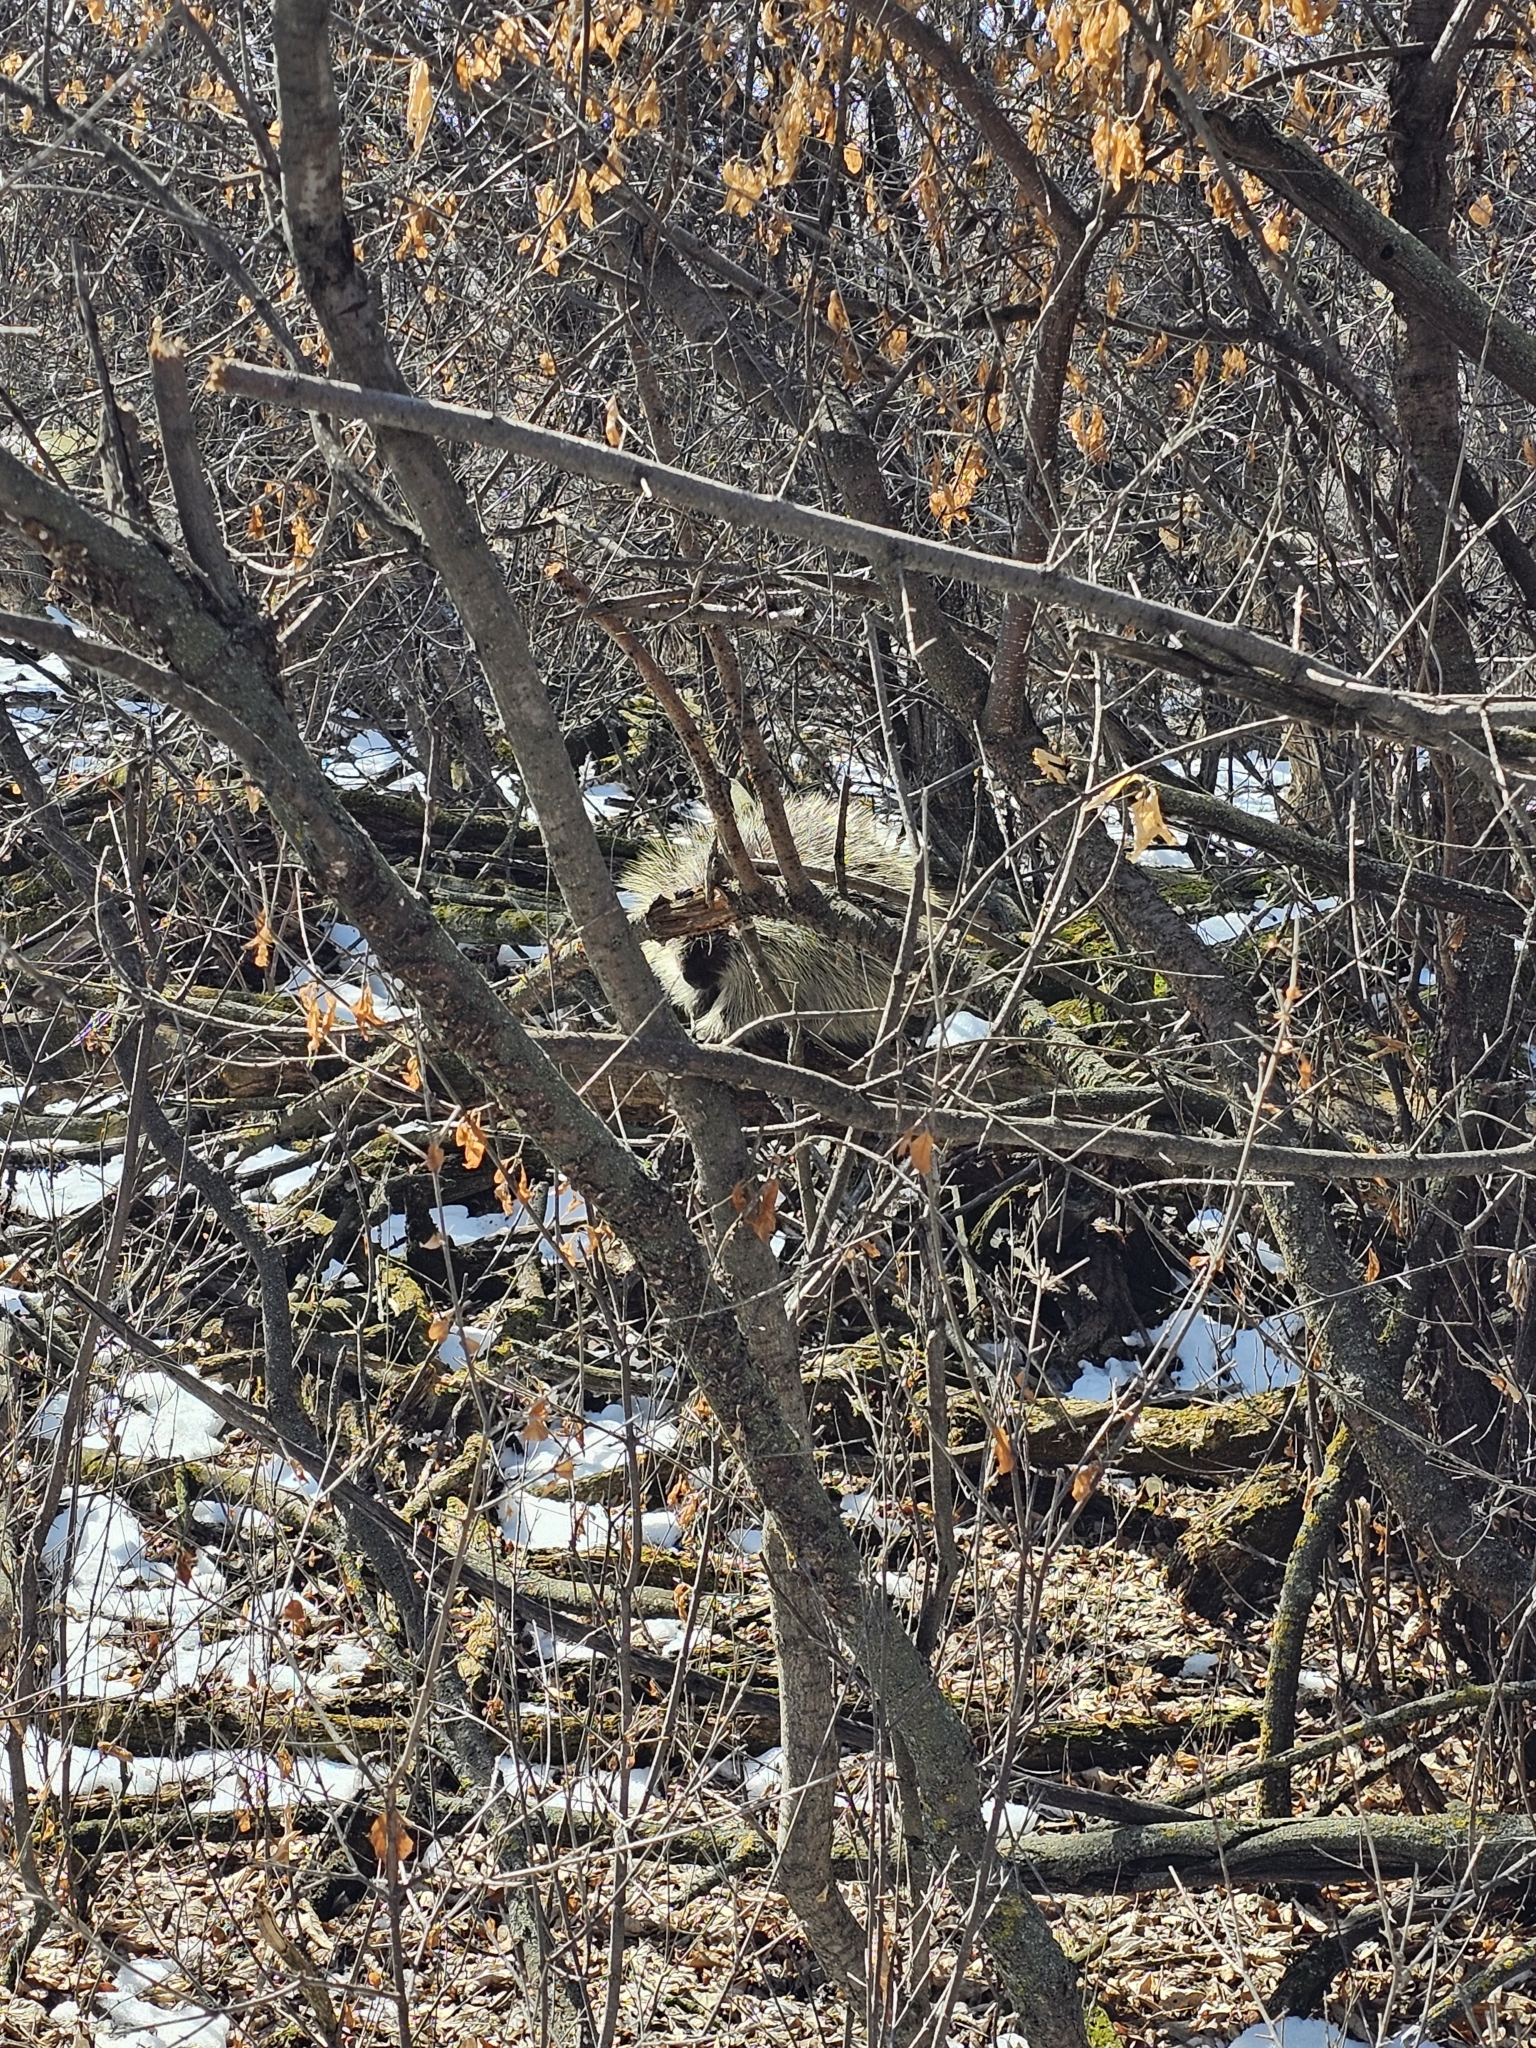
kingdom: Animalia
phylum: Chordata
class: Mammalia
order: Rodentia
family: Erethizontidae
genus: Erethizon
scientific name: Erethizon dorsatus
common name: North american porcupine
